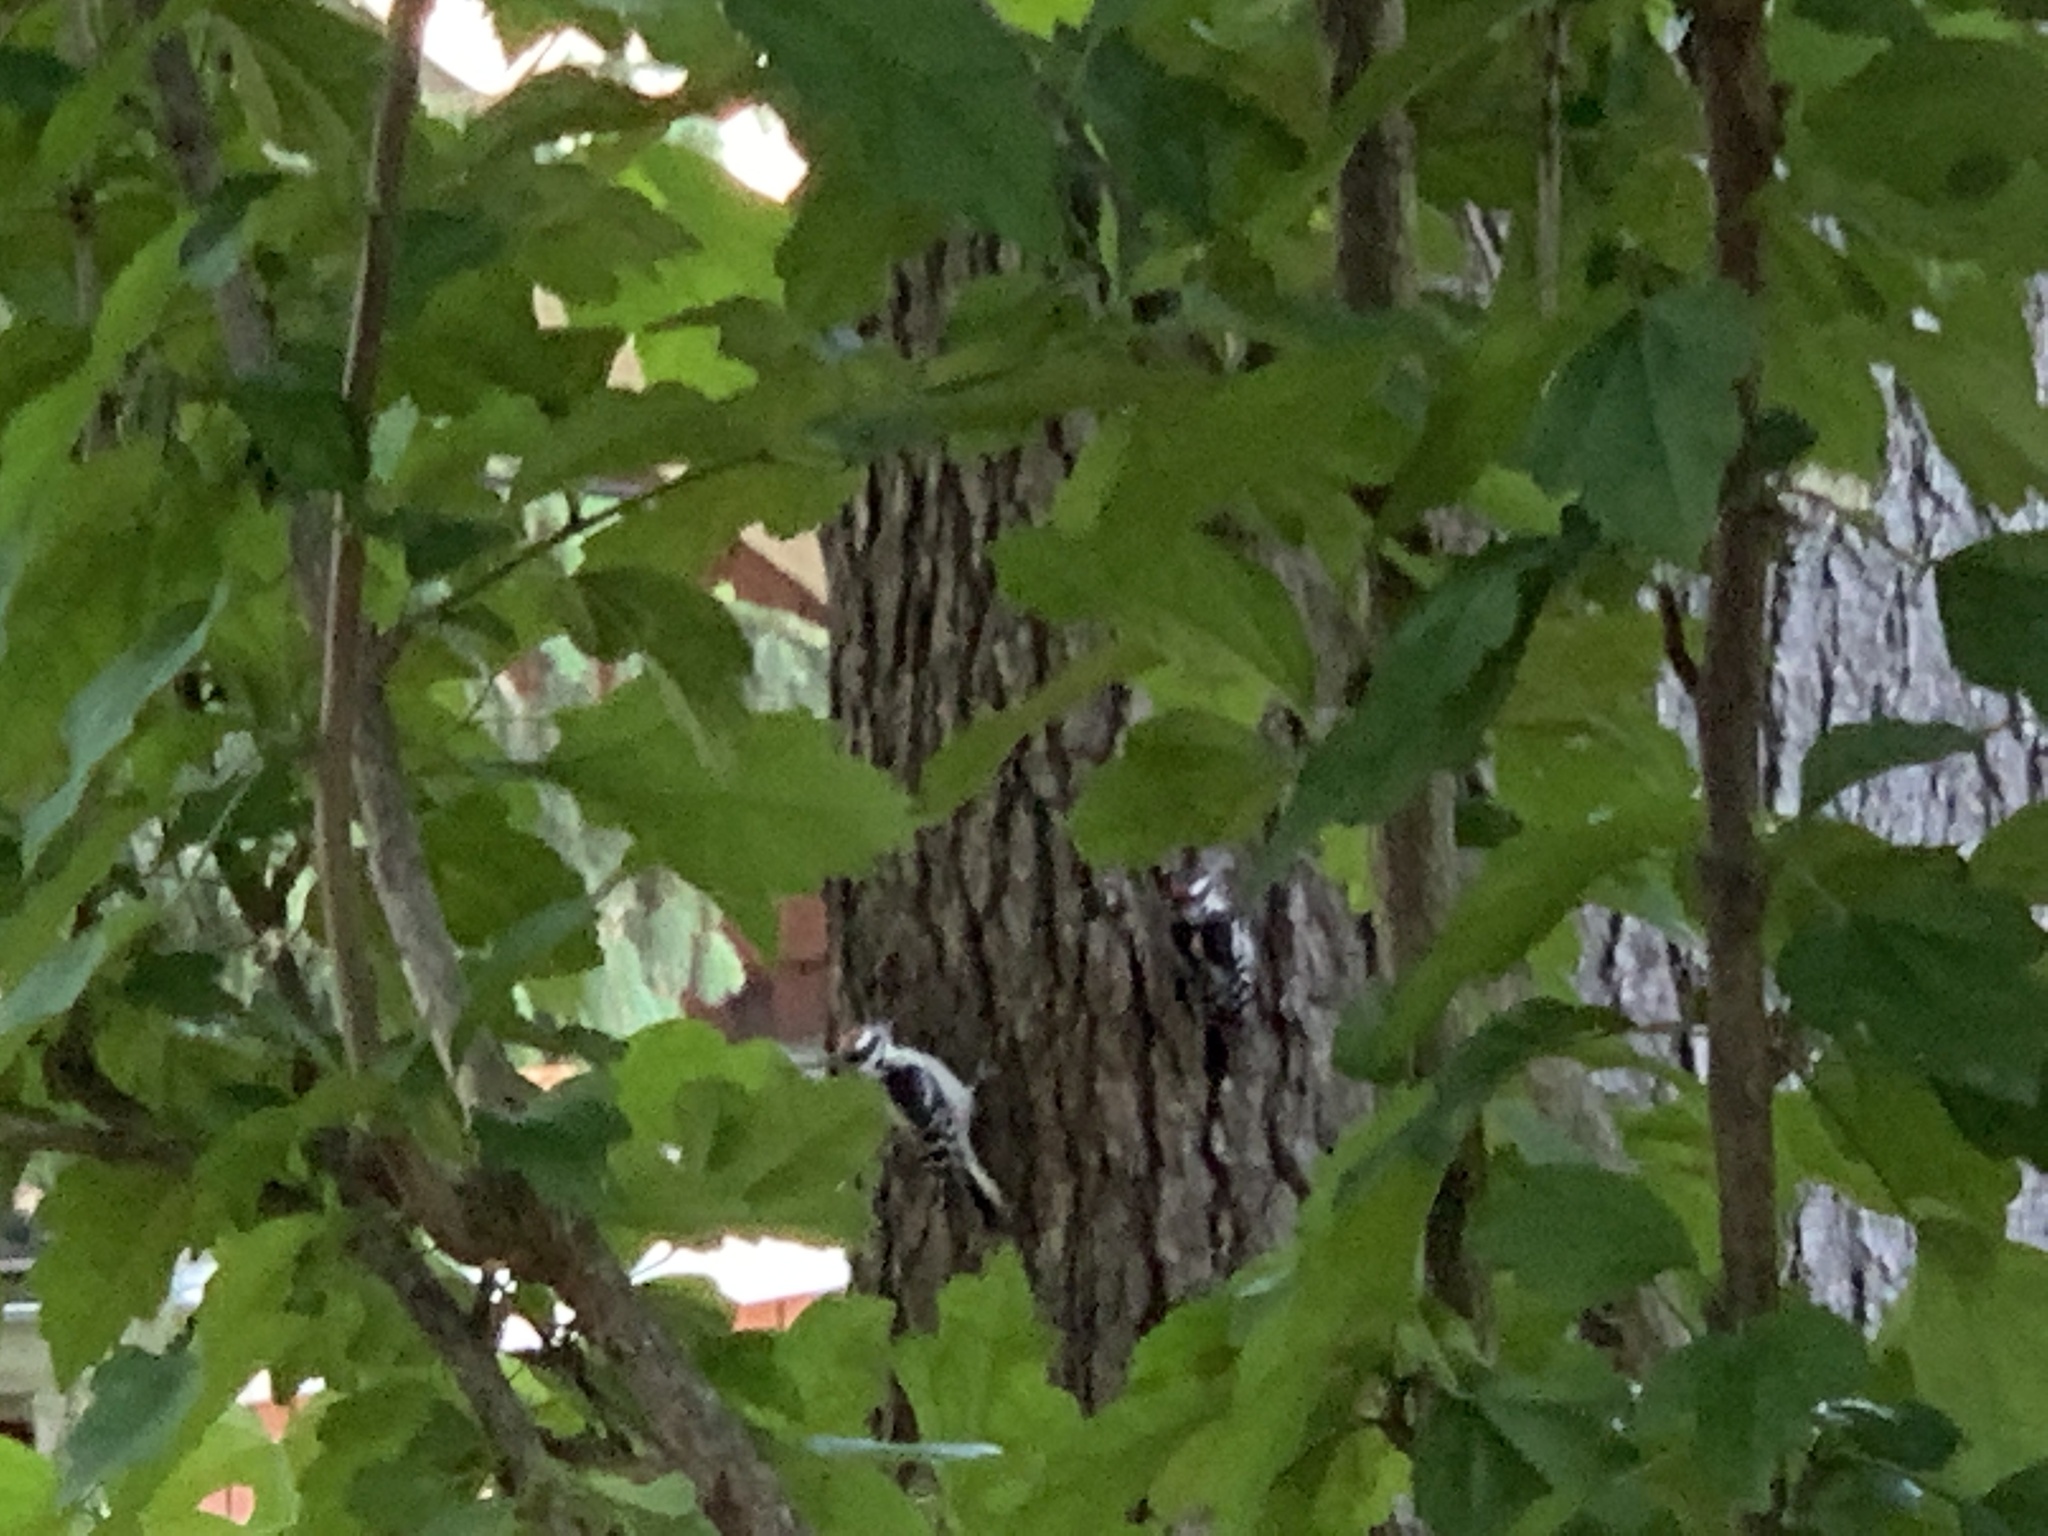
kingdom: Animalia
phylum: Chordata
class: Aves
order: Piciformes
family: Picidae
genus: Dryobates
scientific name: Dryobates pubescens
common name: Downy woodpecker
